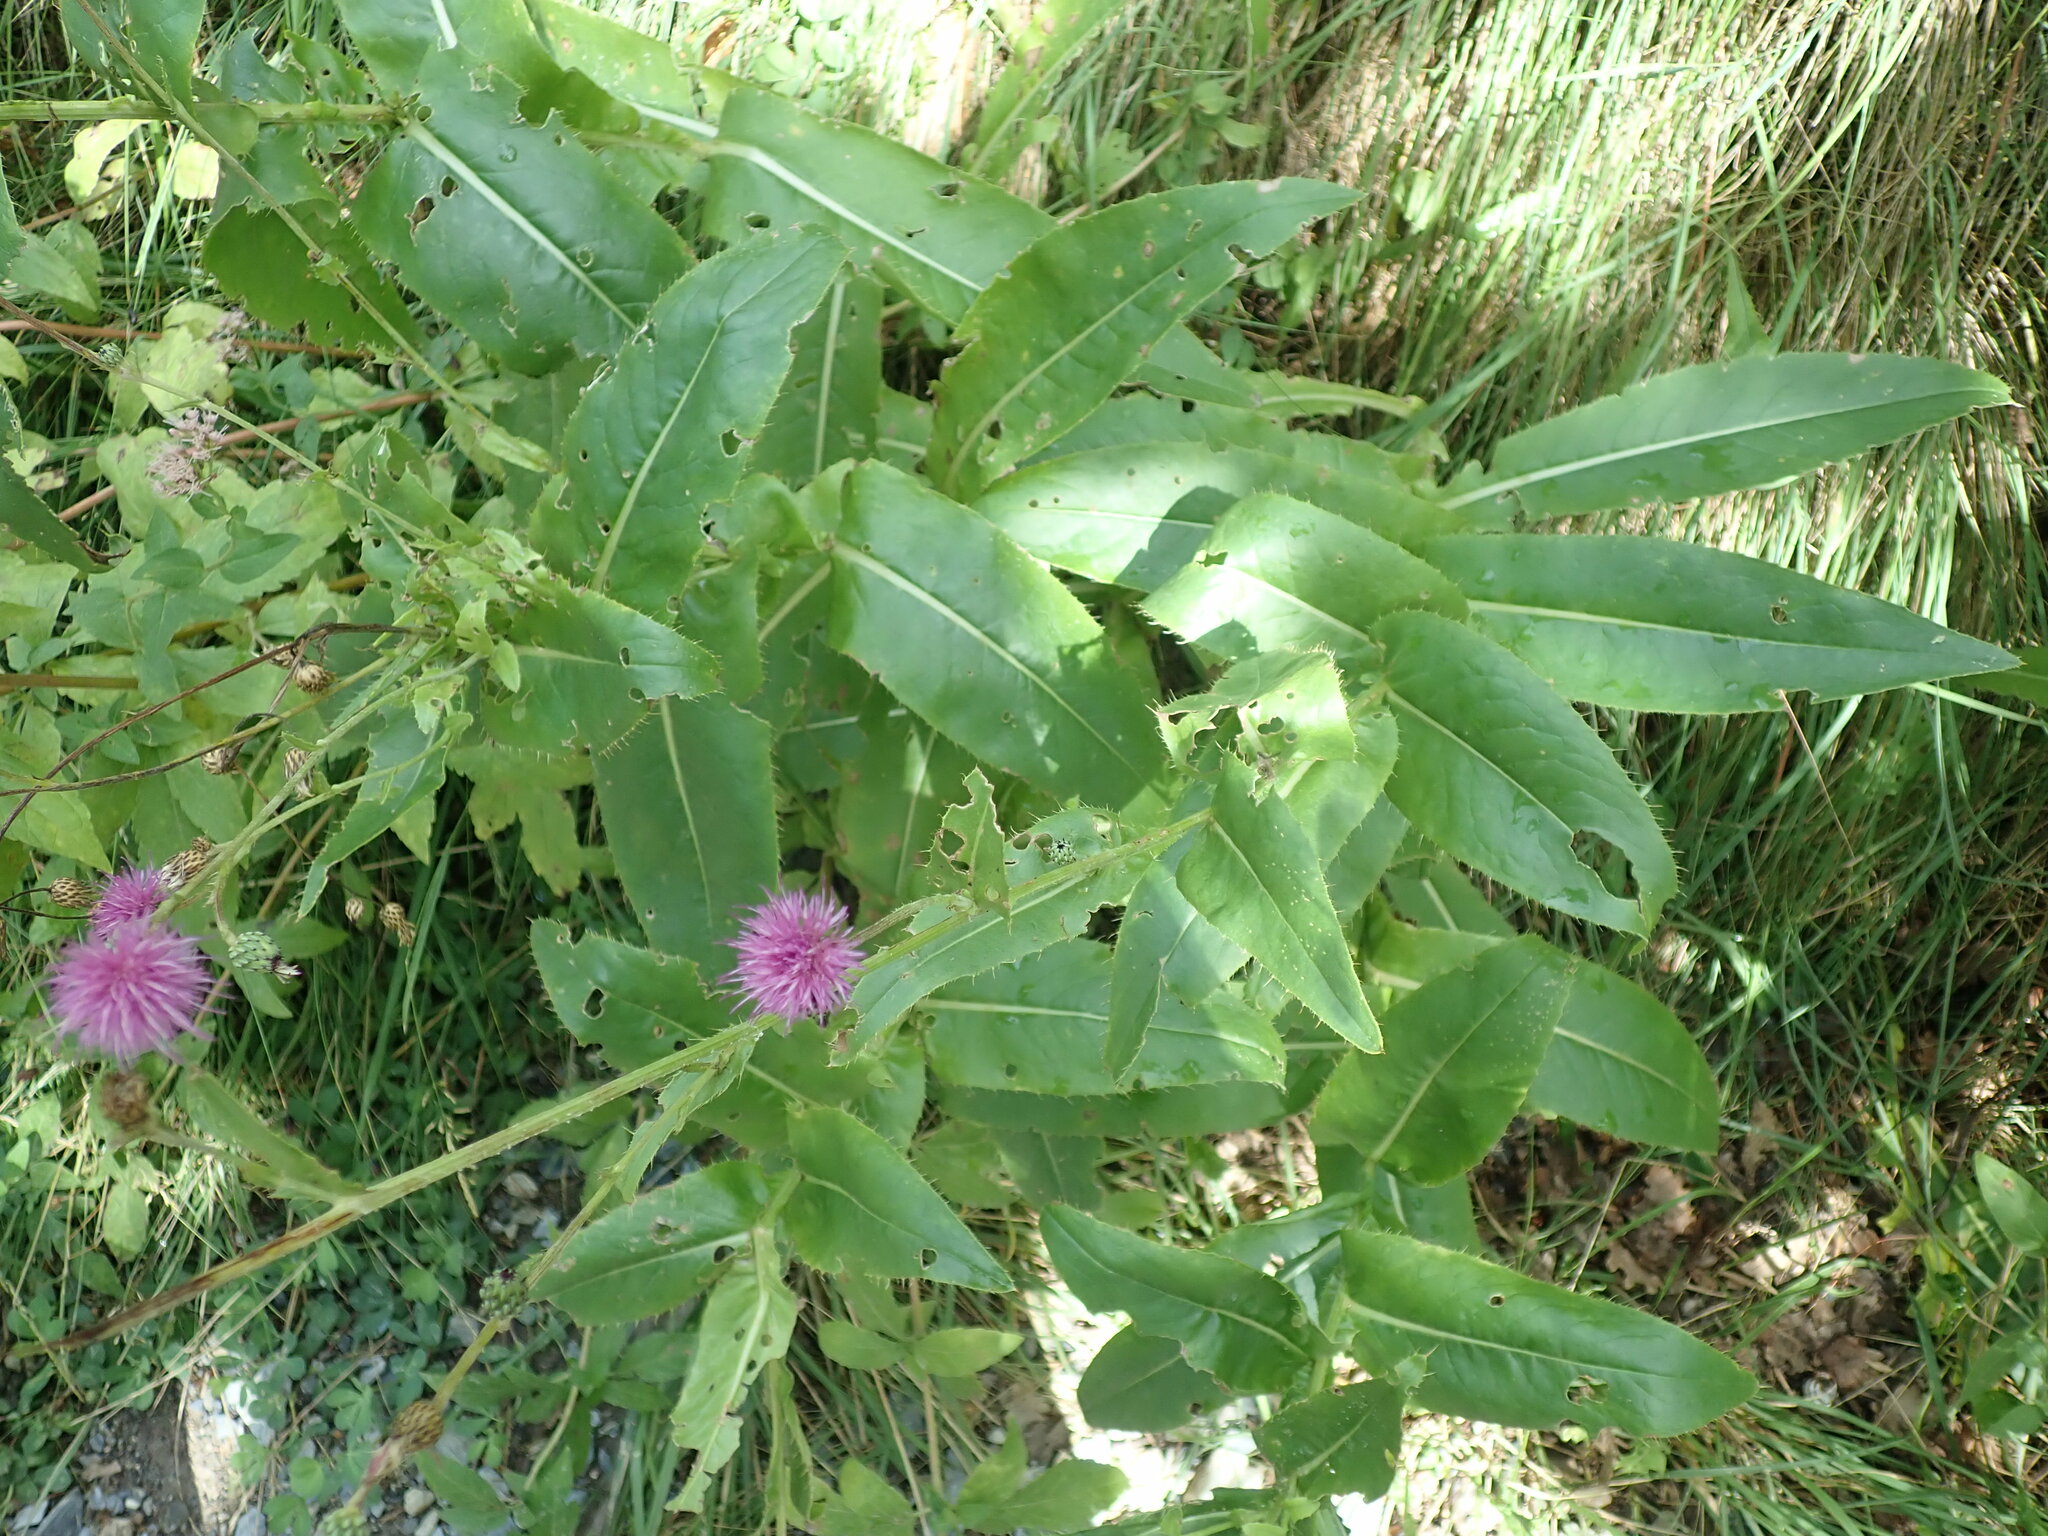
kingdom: Plantae
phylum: Tracheophyta
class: Magnoliopsida
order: Asterales
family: Asteraceae
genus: Cirsium
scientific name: Cirsium monspessulanum
